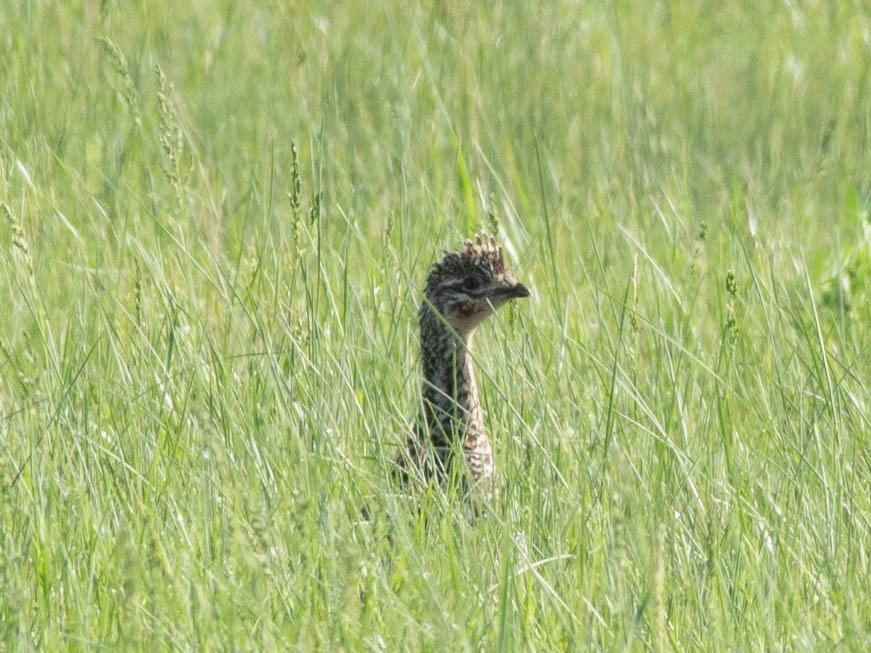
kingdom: Animalia
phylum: Chordata
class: Aves
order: Galliformes
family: Phasianidae
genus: Tympanuchus
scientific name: Tympanuchus phasianellus
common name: Sharp-tailed grouse
